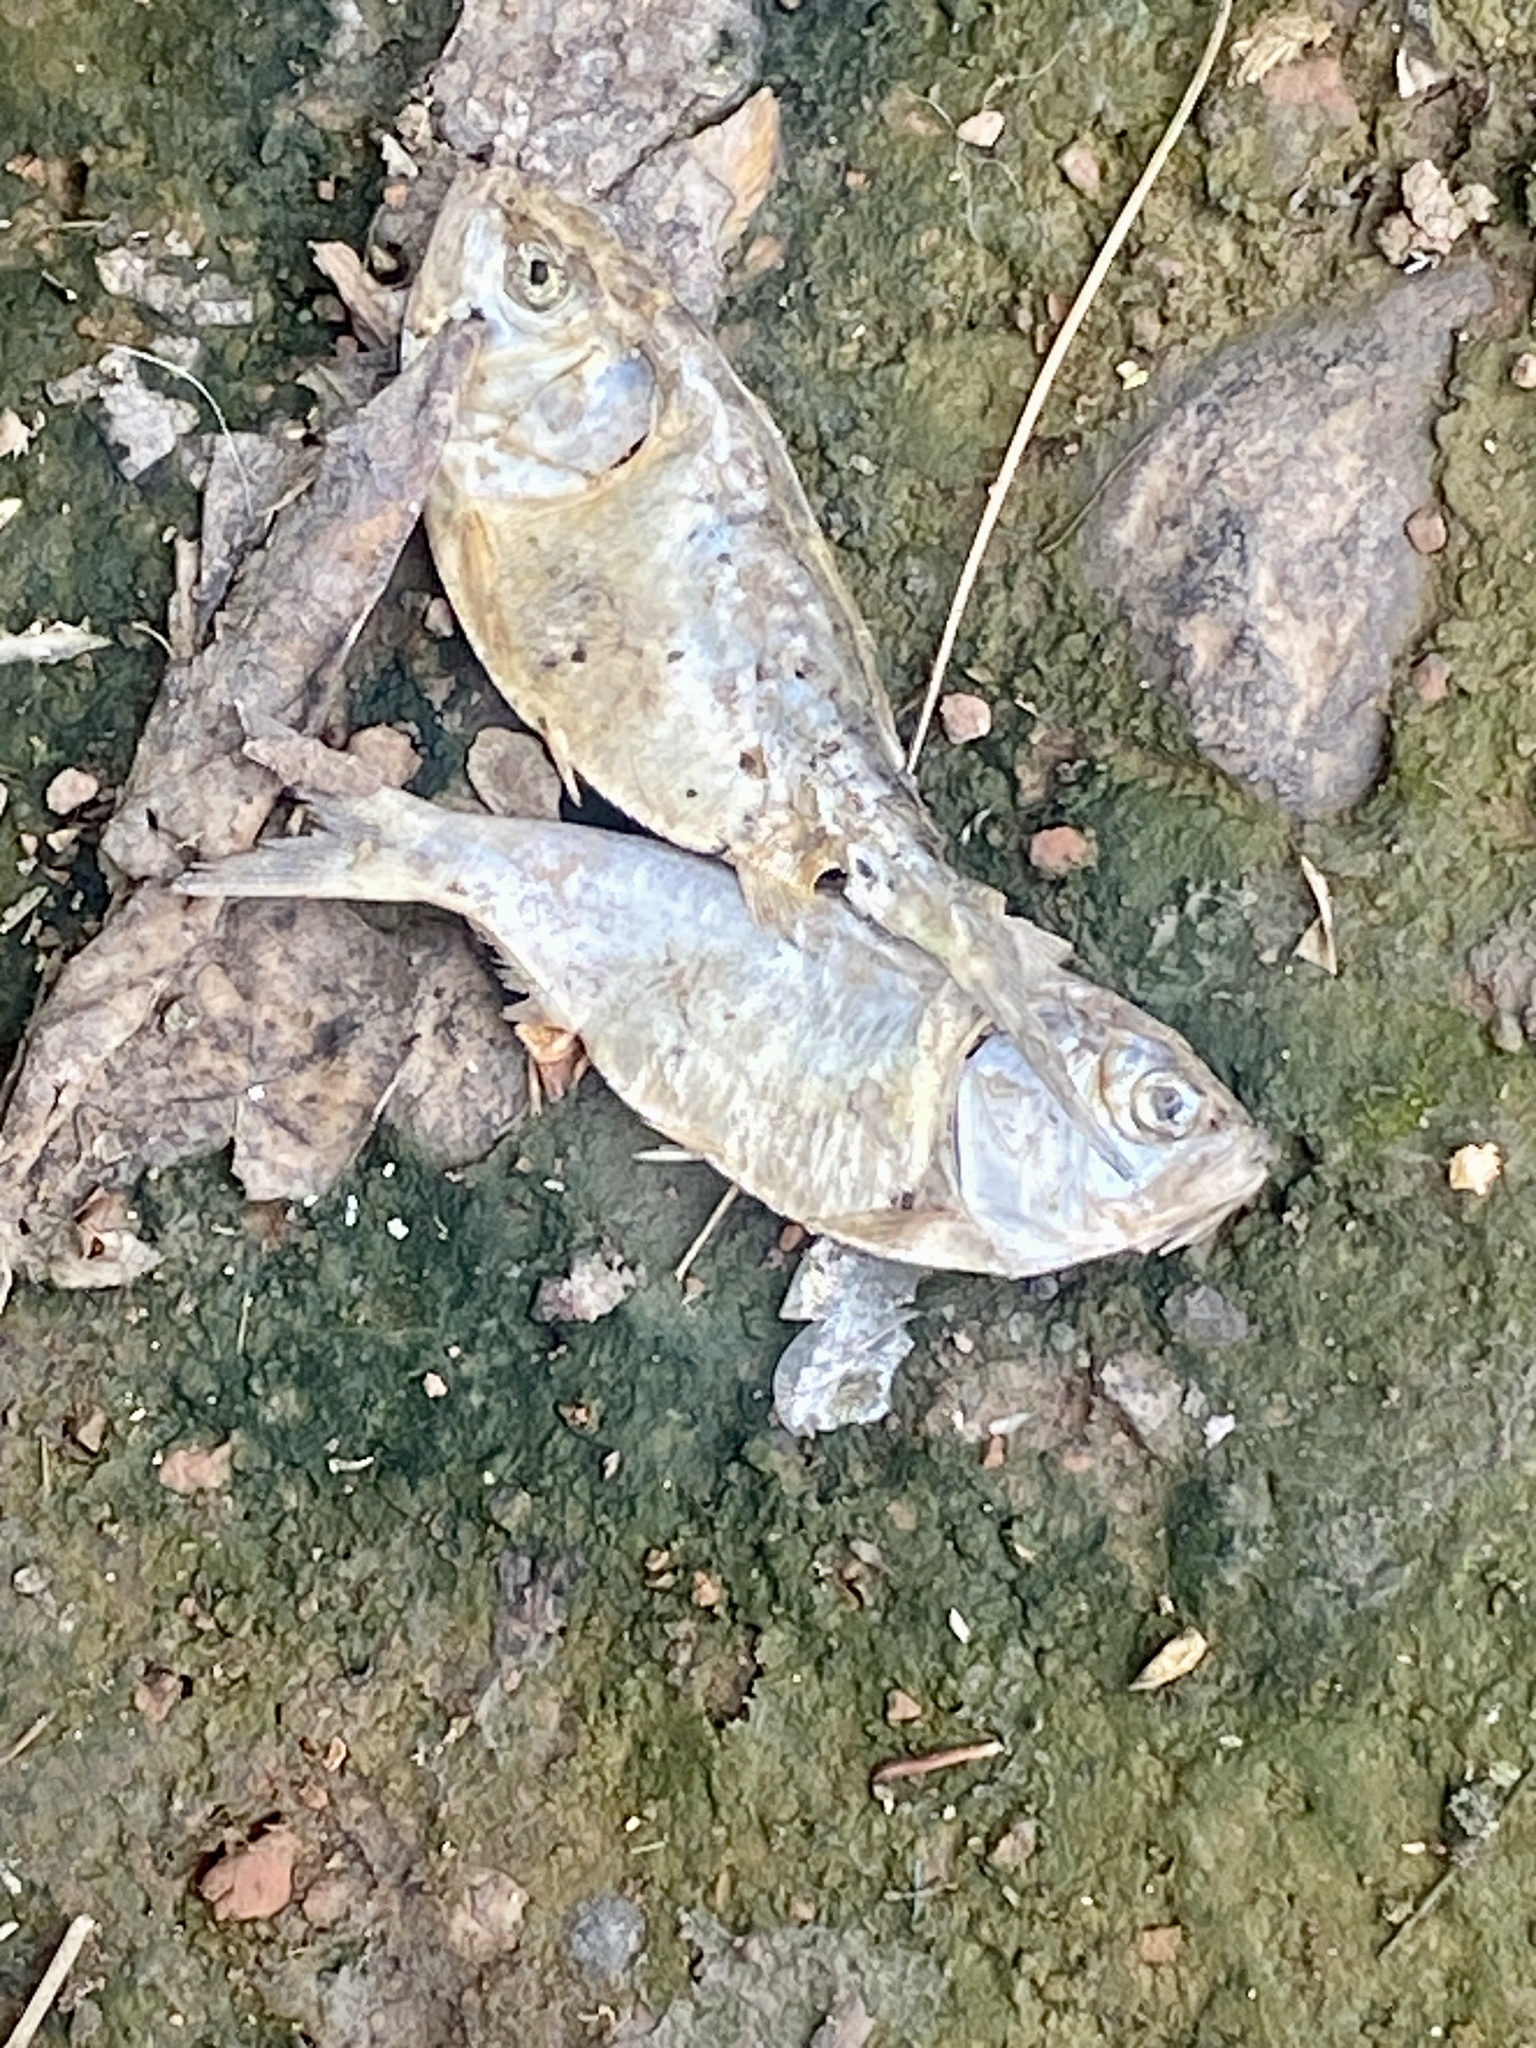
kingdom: Animalia
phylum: Chordata
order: Clupeiformes
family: Clupeidae
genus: Brevoortia
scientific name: Brevoortia tyrannus
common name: Atlantic menhaden
